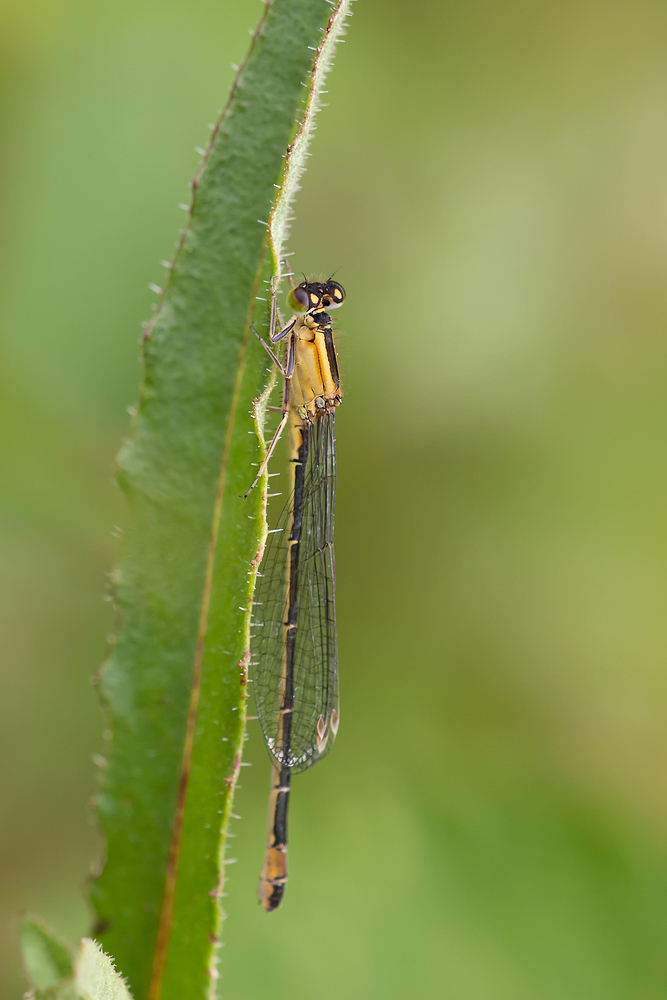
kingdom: Animalia
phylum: Arthropoda
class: Insecta
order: Odonata
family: Coenagrionidae
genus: Ischnura
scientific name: Ischnura elegans
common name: Blue-tailed damselfly
